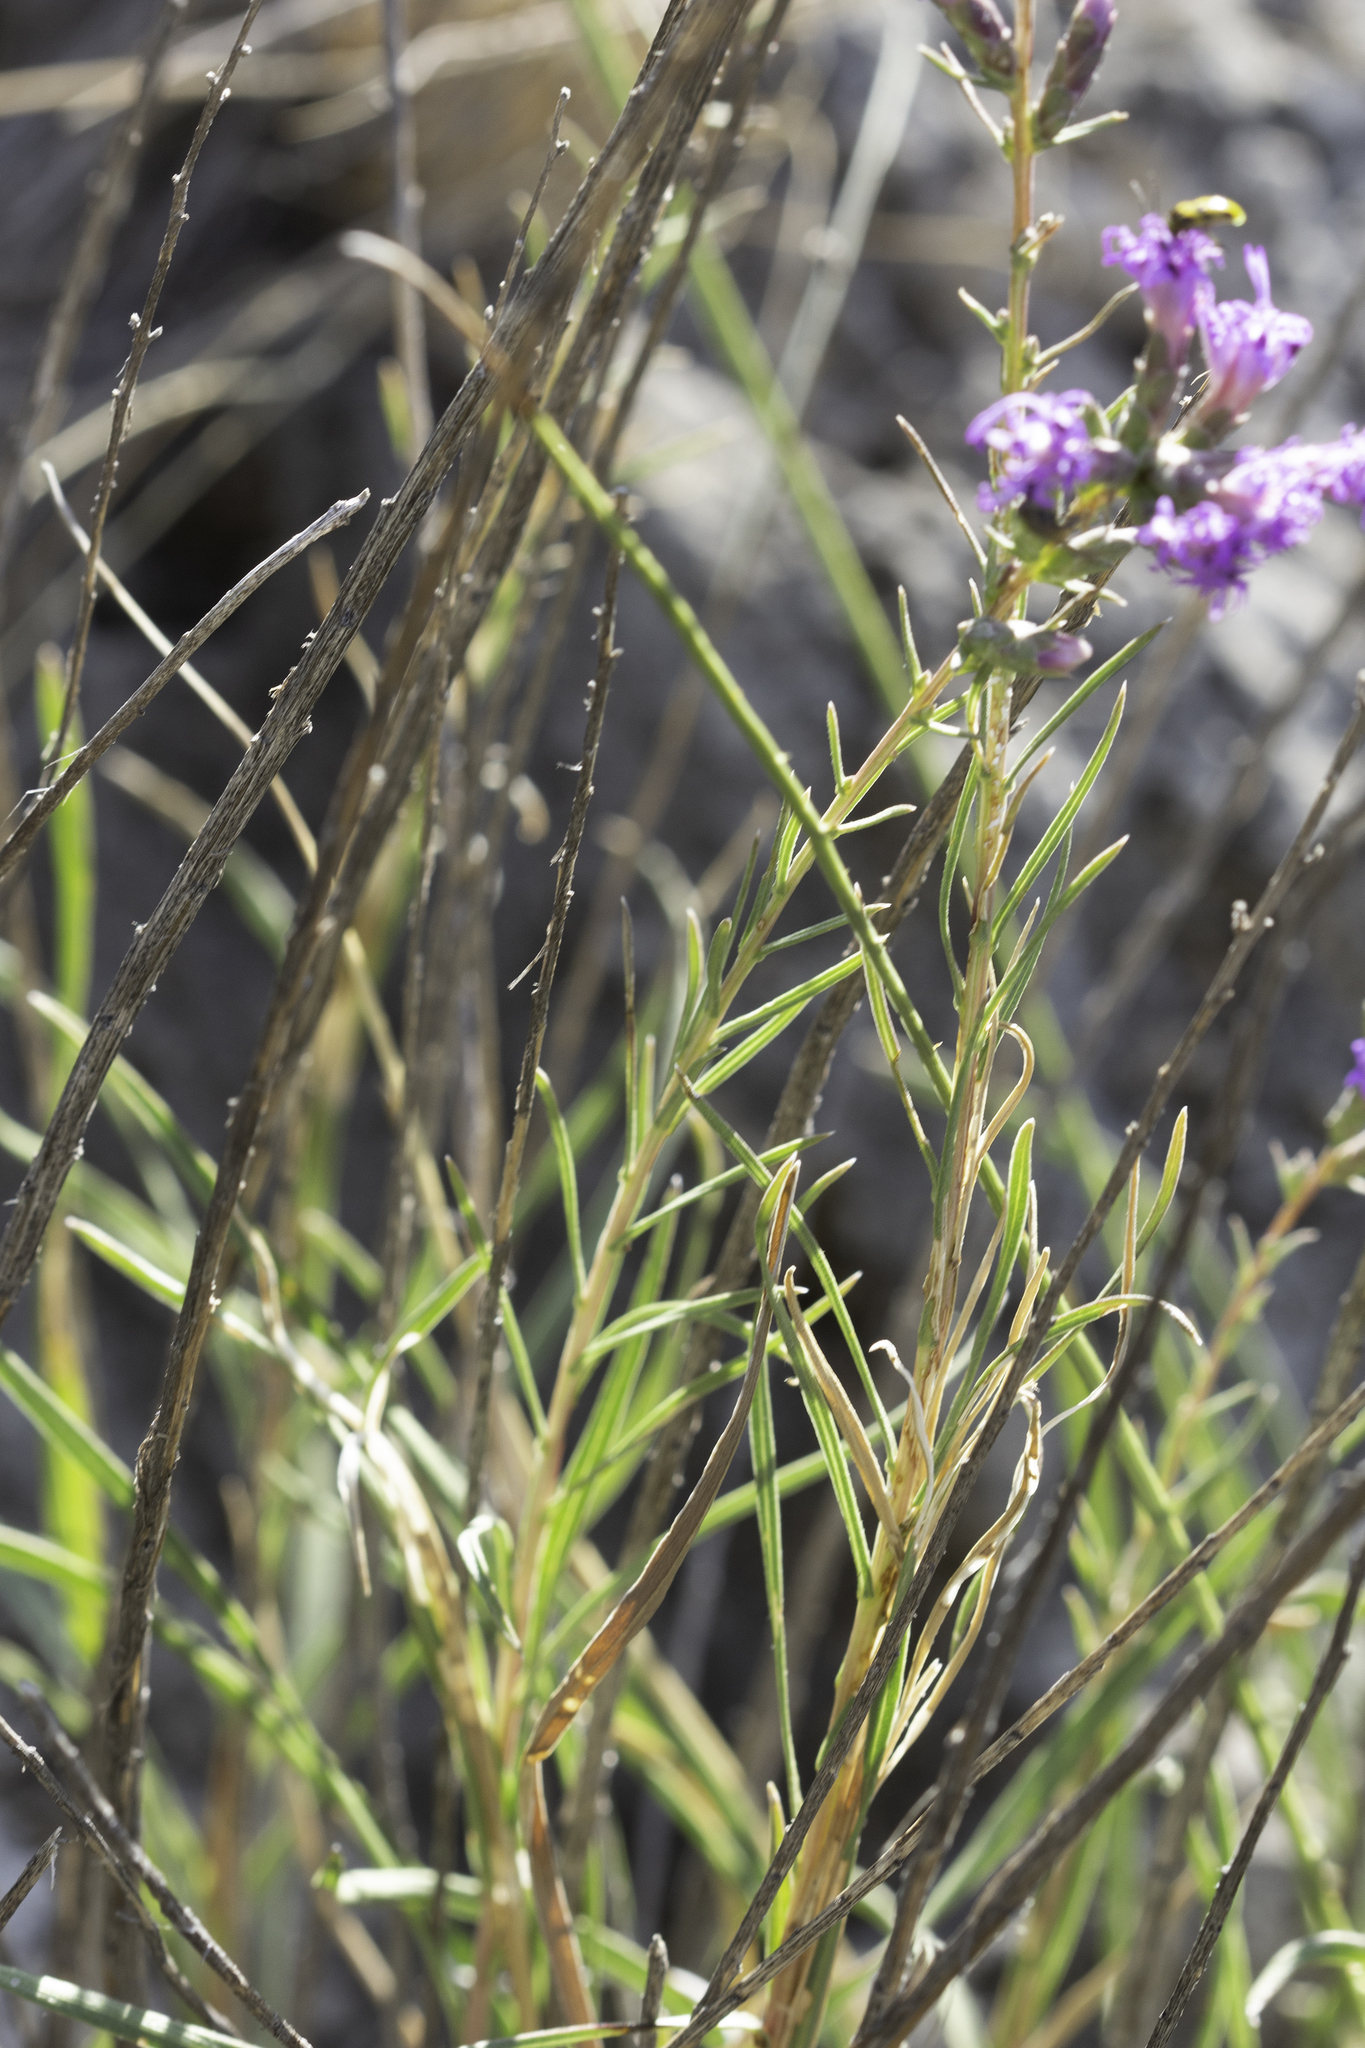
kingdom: Plantae
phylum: Tracheophyta
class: Magnoliopsida
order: Asterales
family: Asteraceae
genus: Liatris
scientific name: Liatris punctata
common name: Dotted gayfeather
